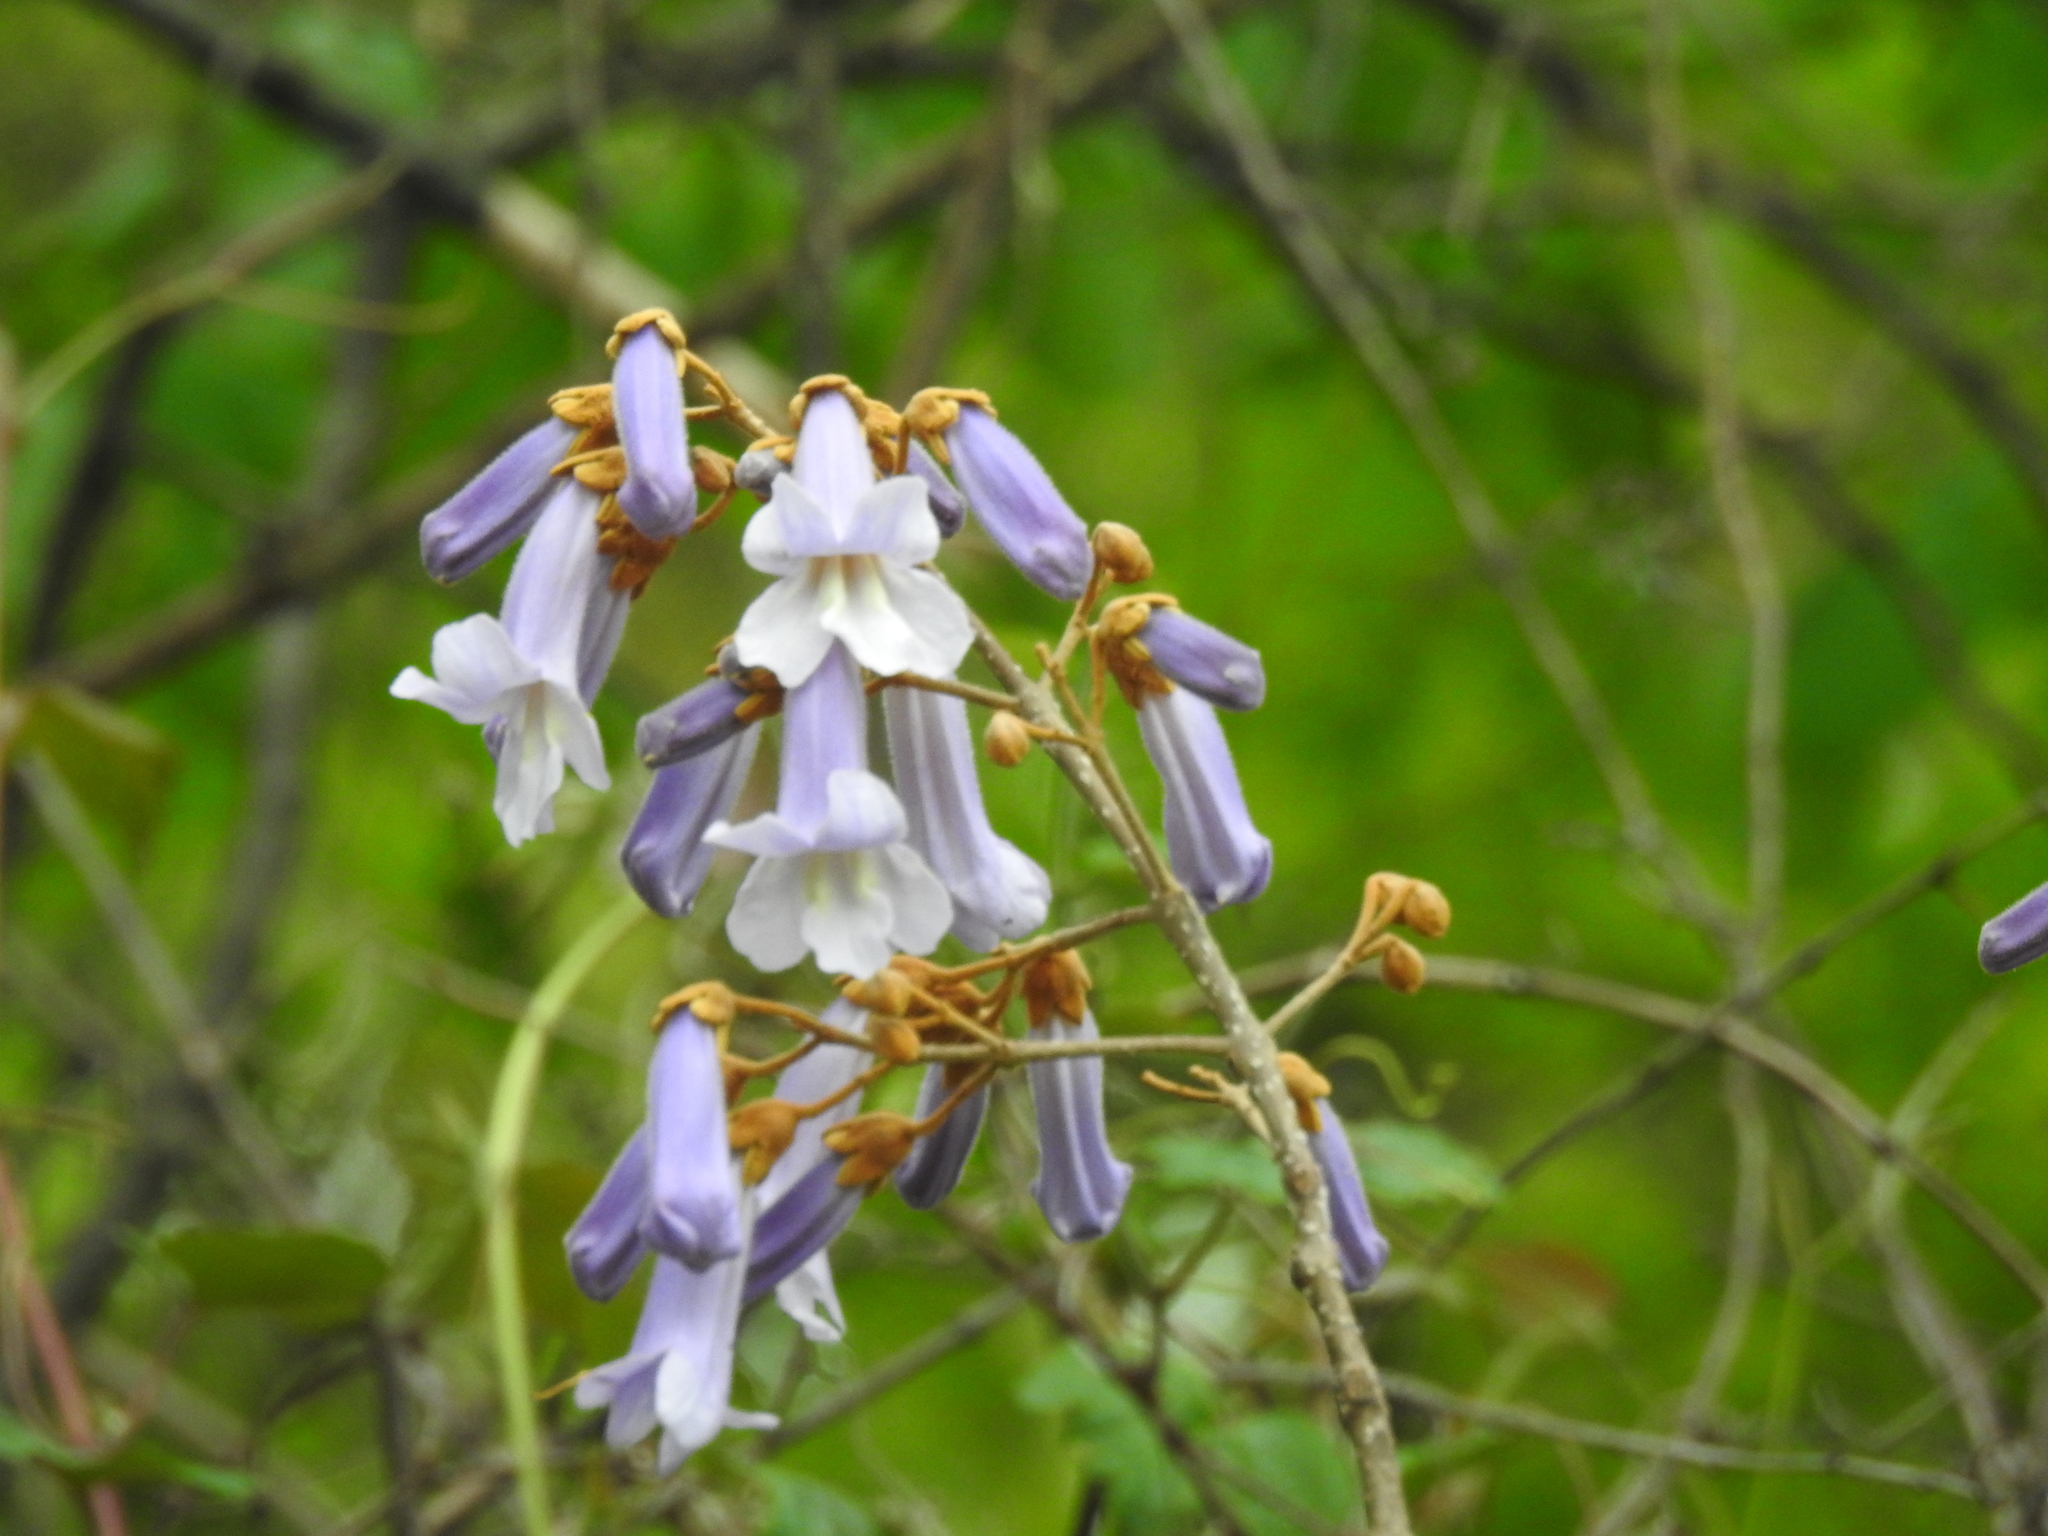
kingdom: Plantae
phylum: Tracheophyta
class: Magnoliopsida
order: Lamiales
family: Paulowniaceae
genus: Paulownia
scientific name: Paulownia tomentosa
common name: Foxglove-tree
